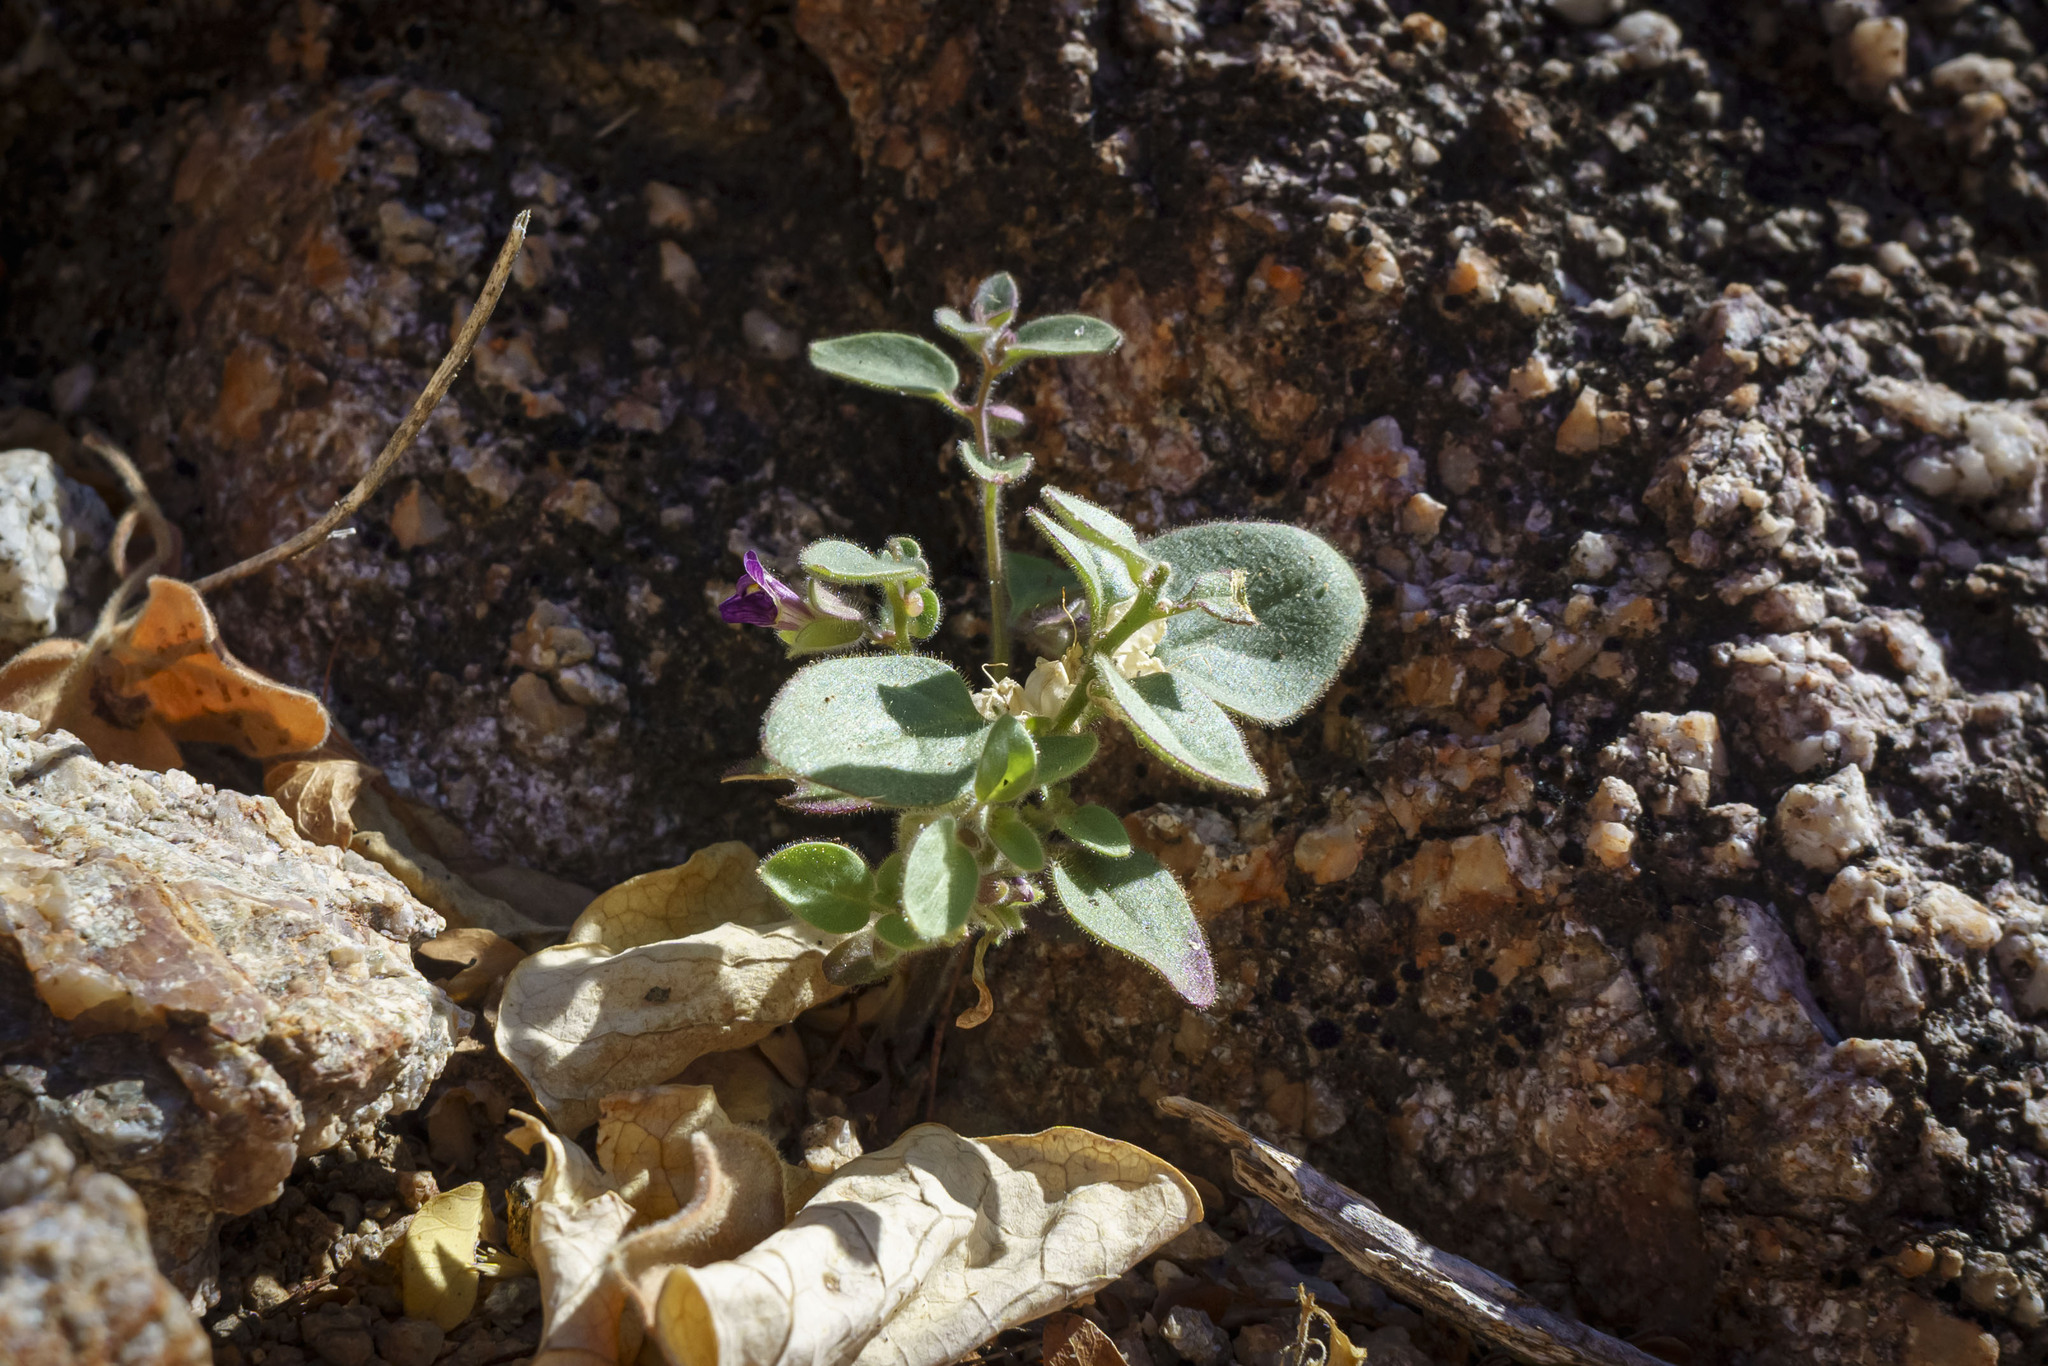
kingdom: Plantae
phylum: Tracheophyta
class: Magnoliopsida
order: Lamiales
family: Plantaginaceae
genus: Pseudorontium
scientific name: Pseudorontium cyathiferum
